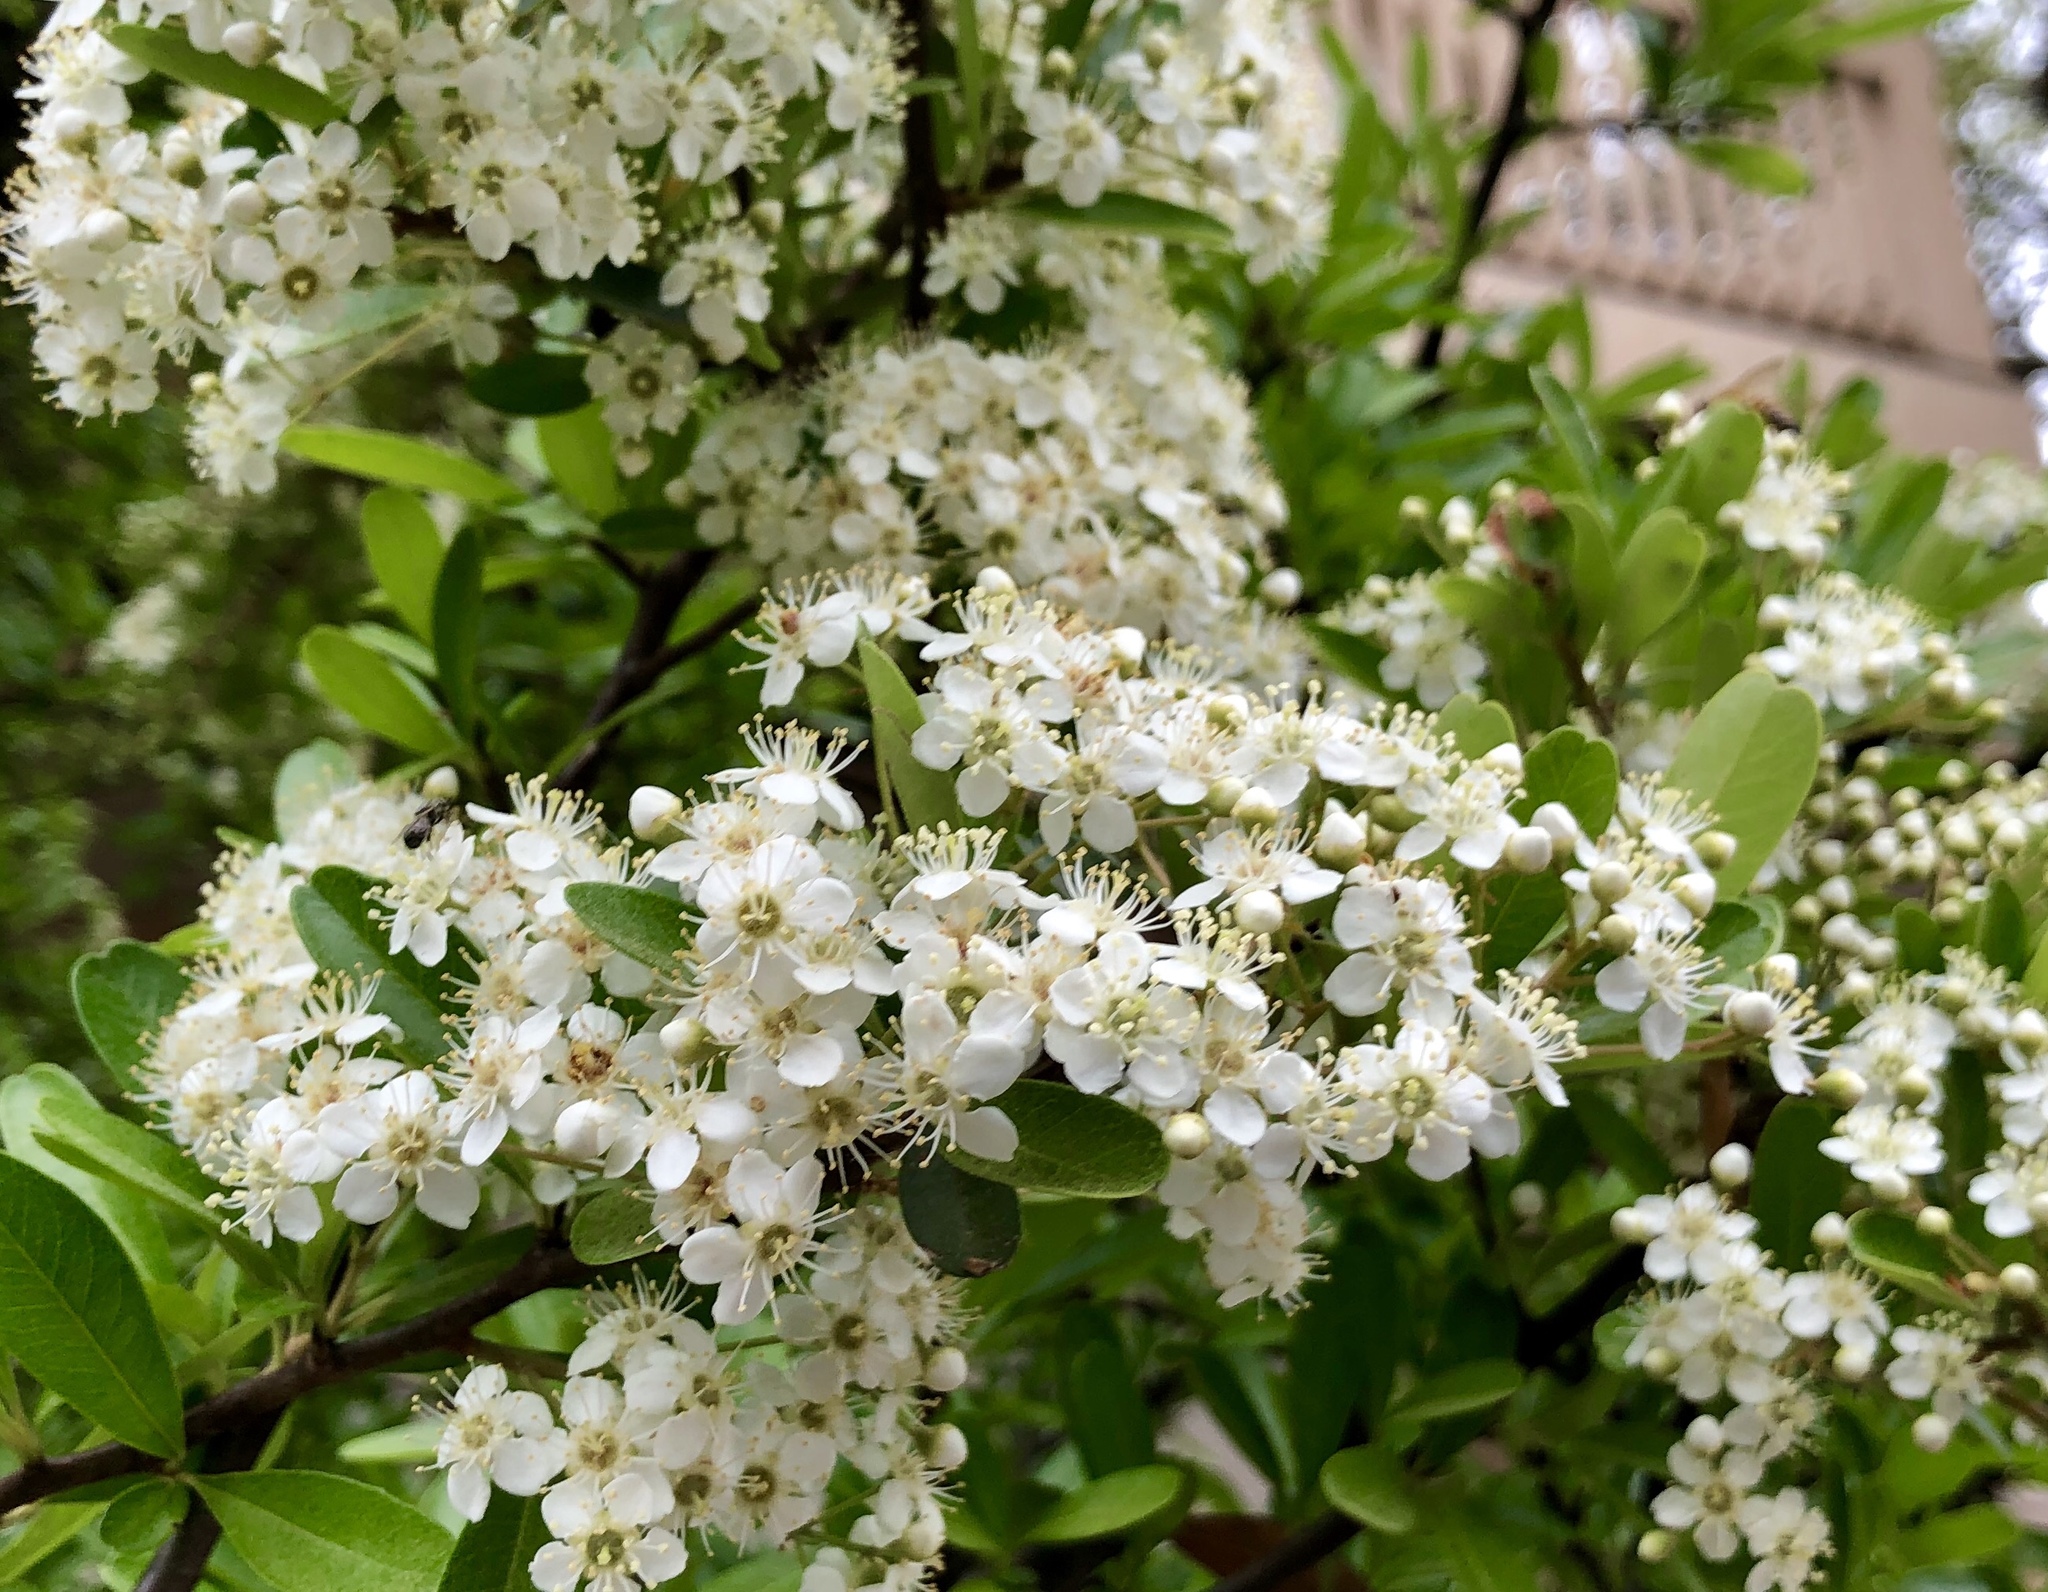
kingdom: Plantae
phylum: Tracheophyta
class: Magnoliopsida
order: Rosales
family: Rosaceae
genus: Pyracantha
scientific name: Pyracantha coccinea
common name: Firethorn
